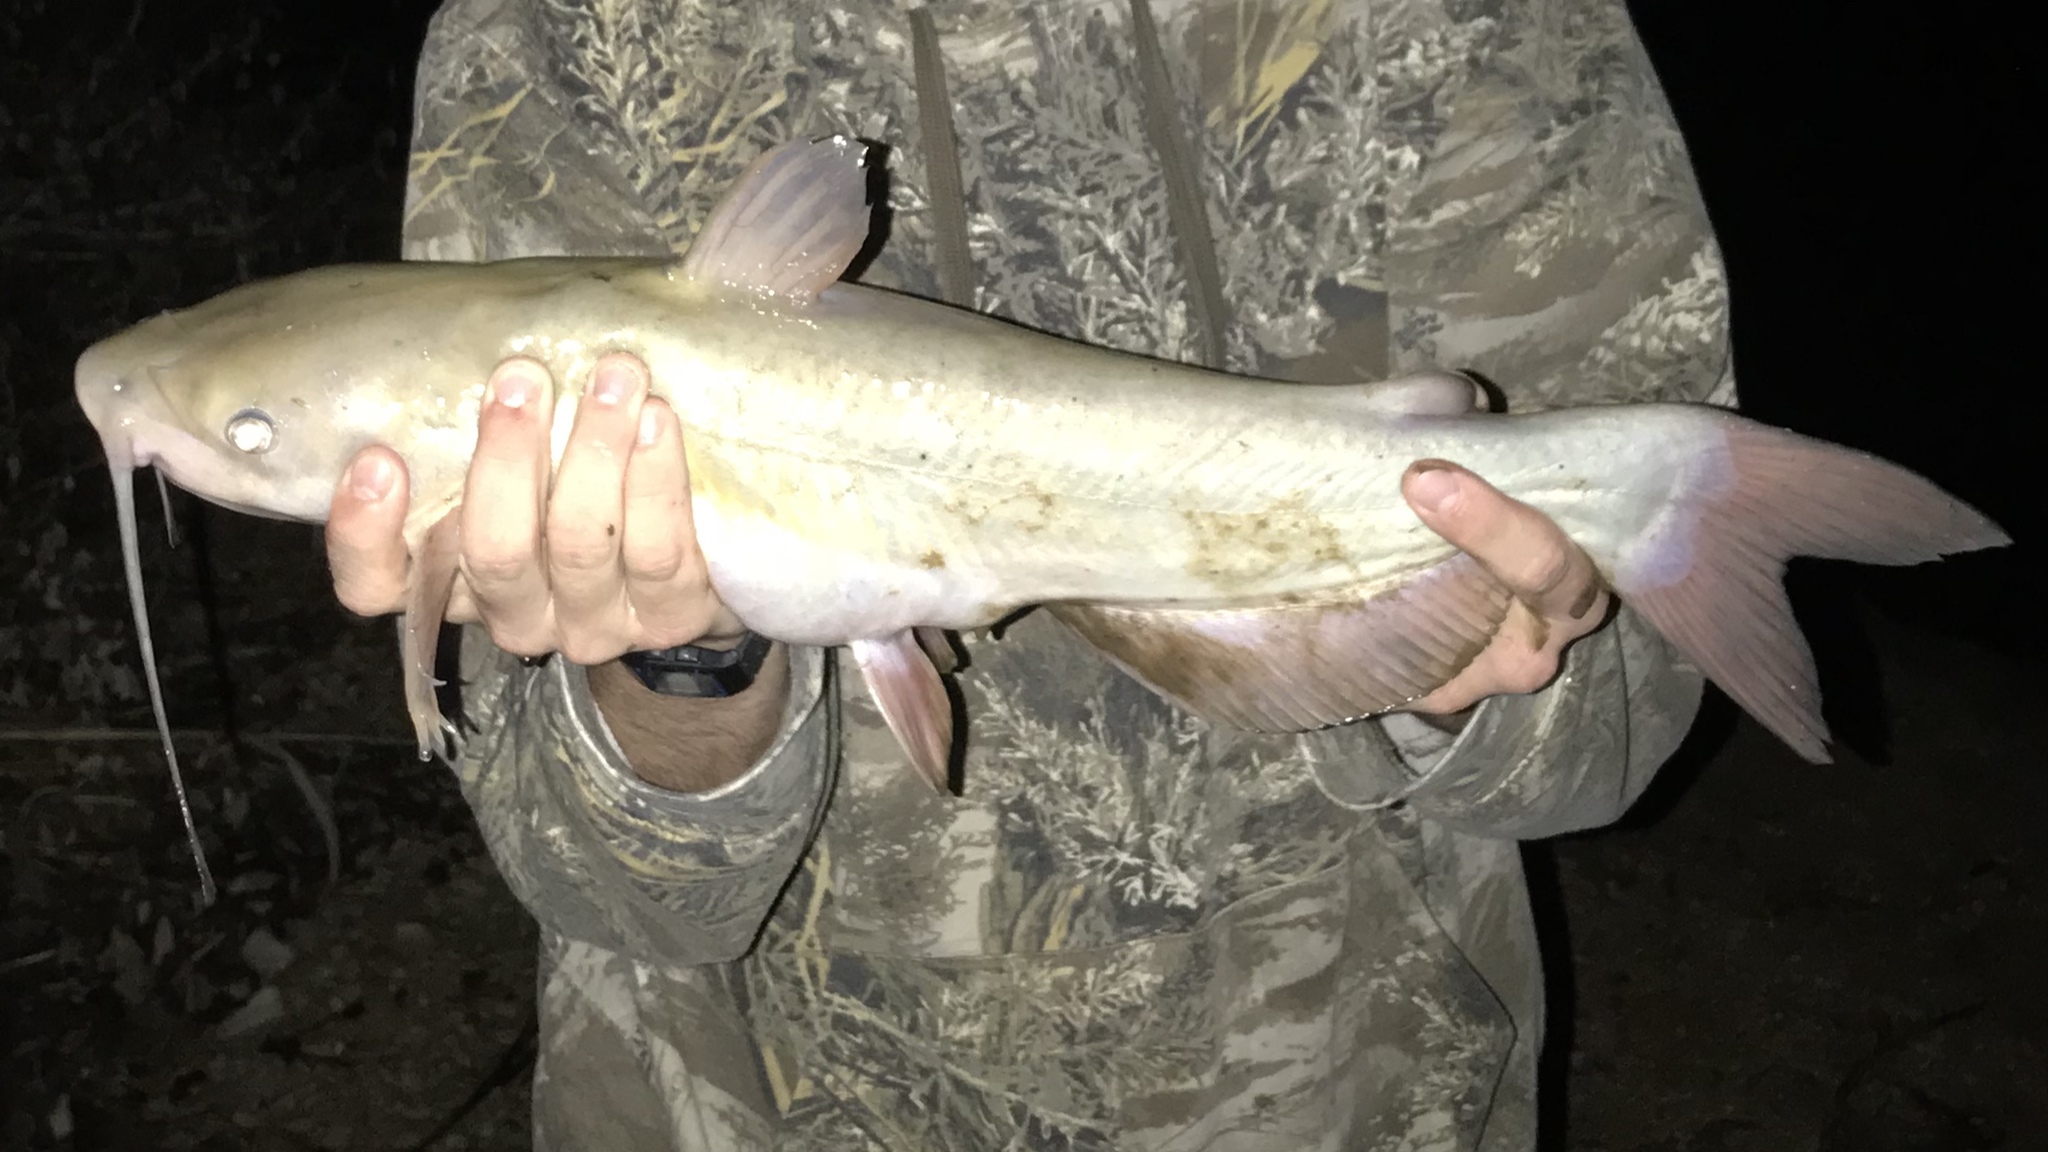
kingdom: Animalia
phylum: Chordata
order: Siluriformes
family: Ictaluridae
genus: Ictalurus
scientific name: Ictalurus punctatus
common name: Channel catfish
